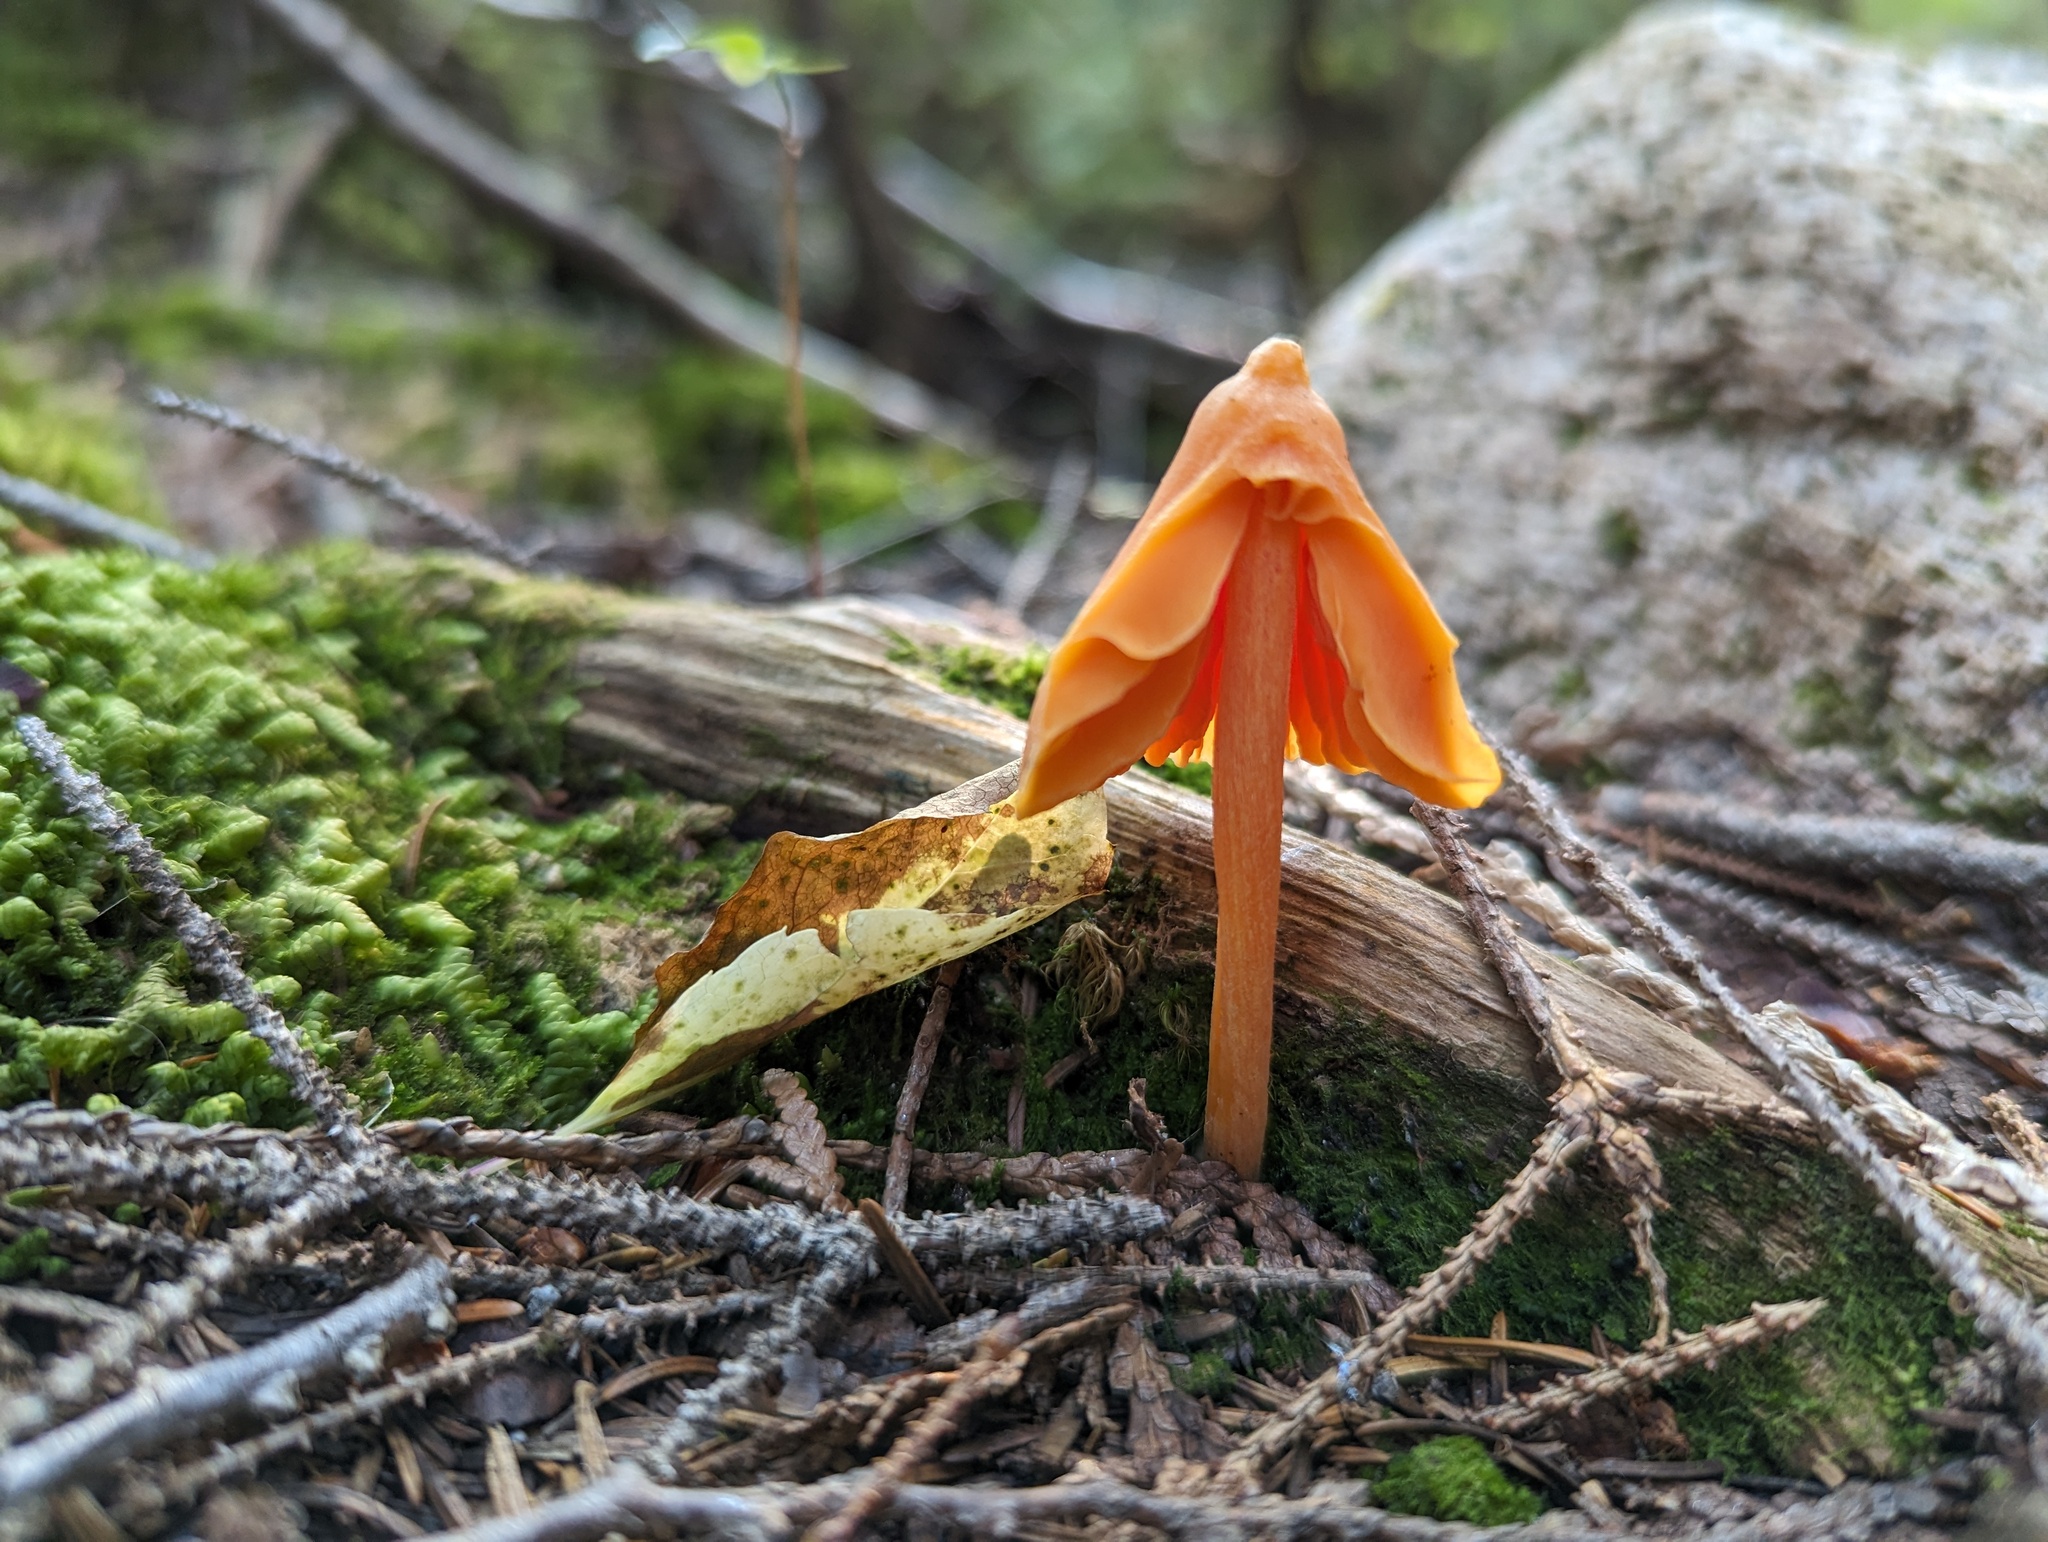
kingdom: Fungi
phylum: Basidiomycota
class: Agaricomycetes
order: Agaricales
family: Entolomataceae
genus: Entoloma
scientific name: Entoloma quadratum
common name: Salmon pinkgill
